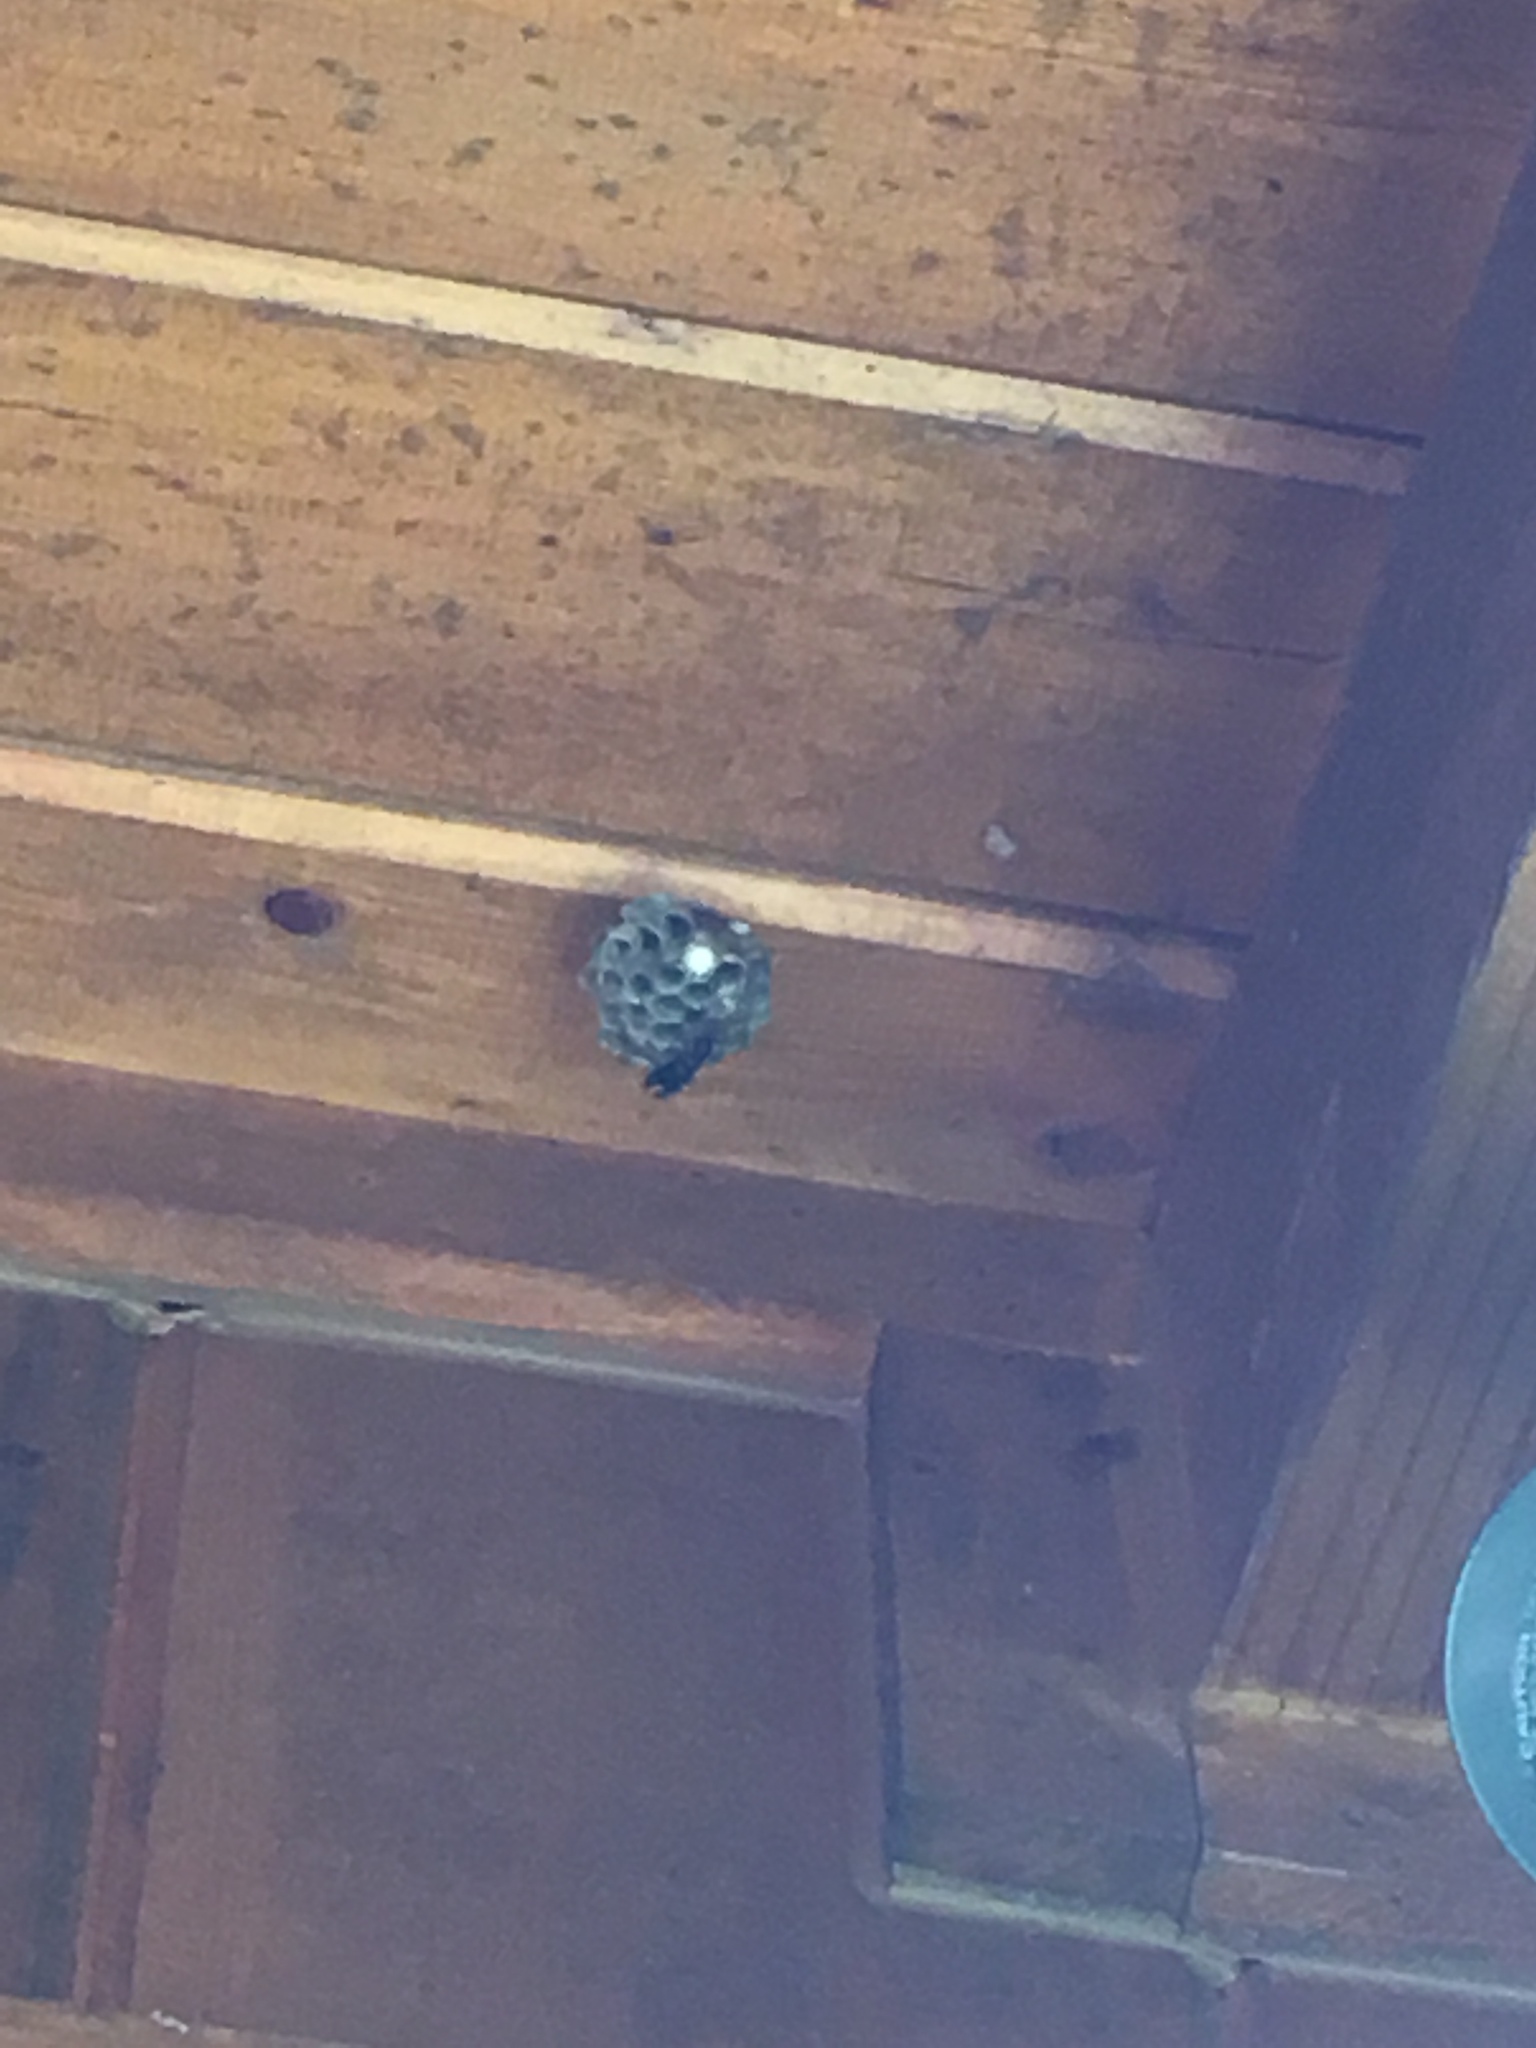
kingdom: Animalia
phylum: Arthropoda
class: Insecta
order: Hymenoptera
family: Eumenidae
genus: Polistes
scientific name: Polistes
